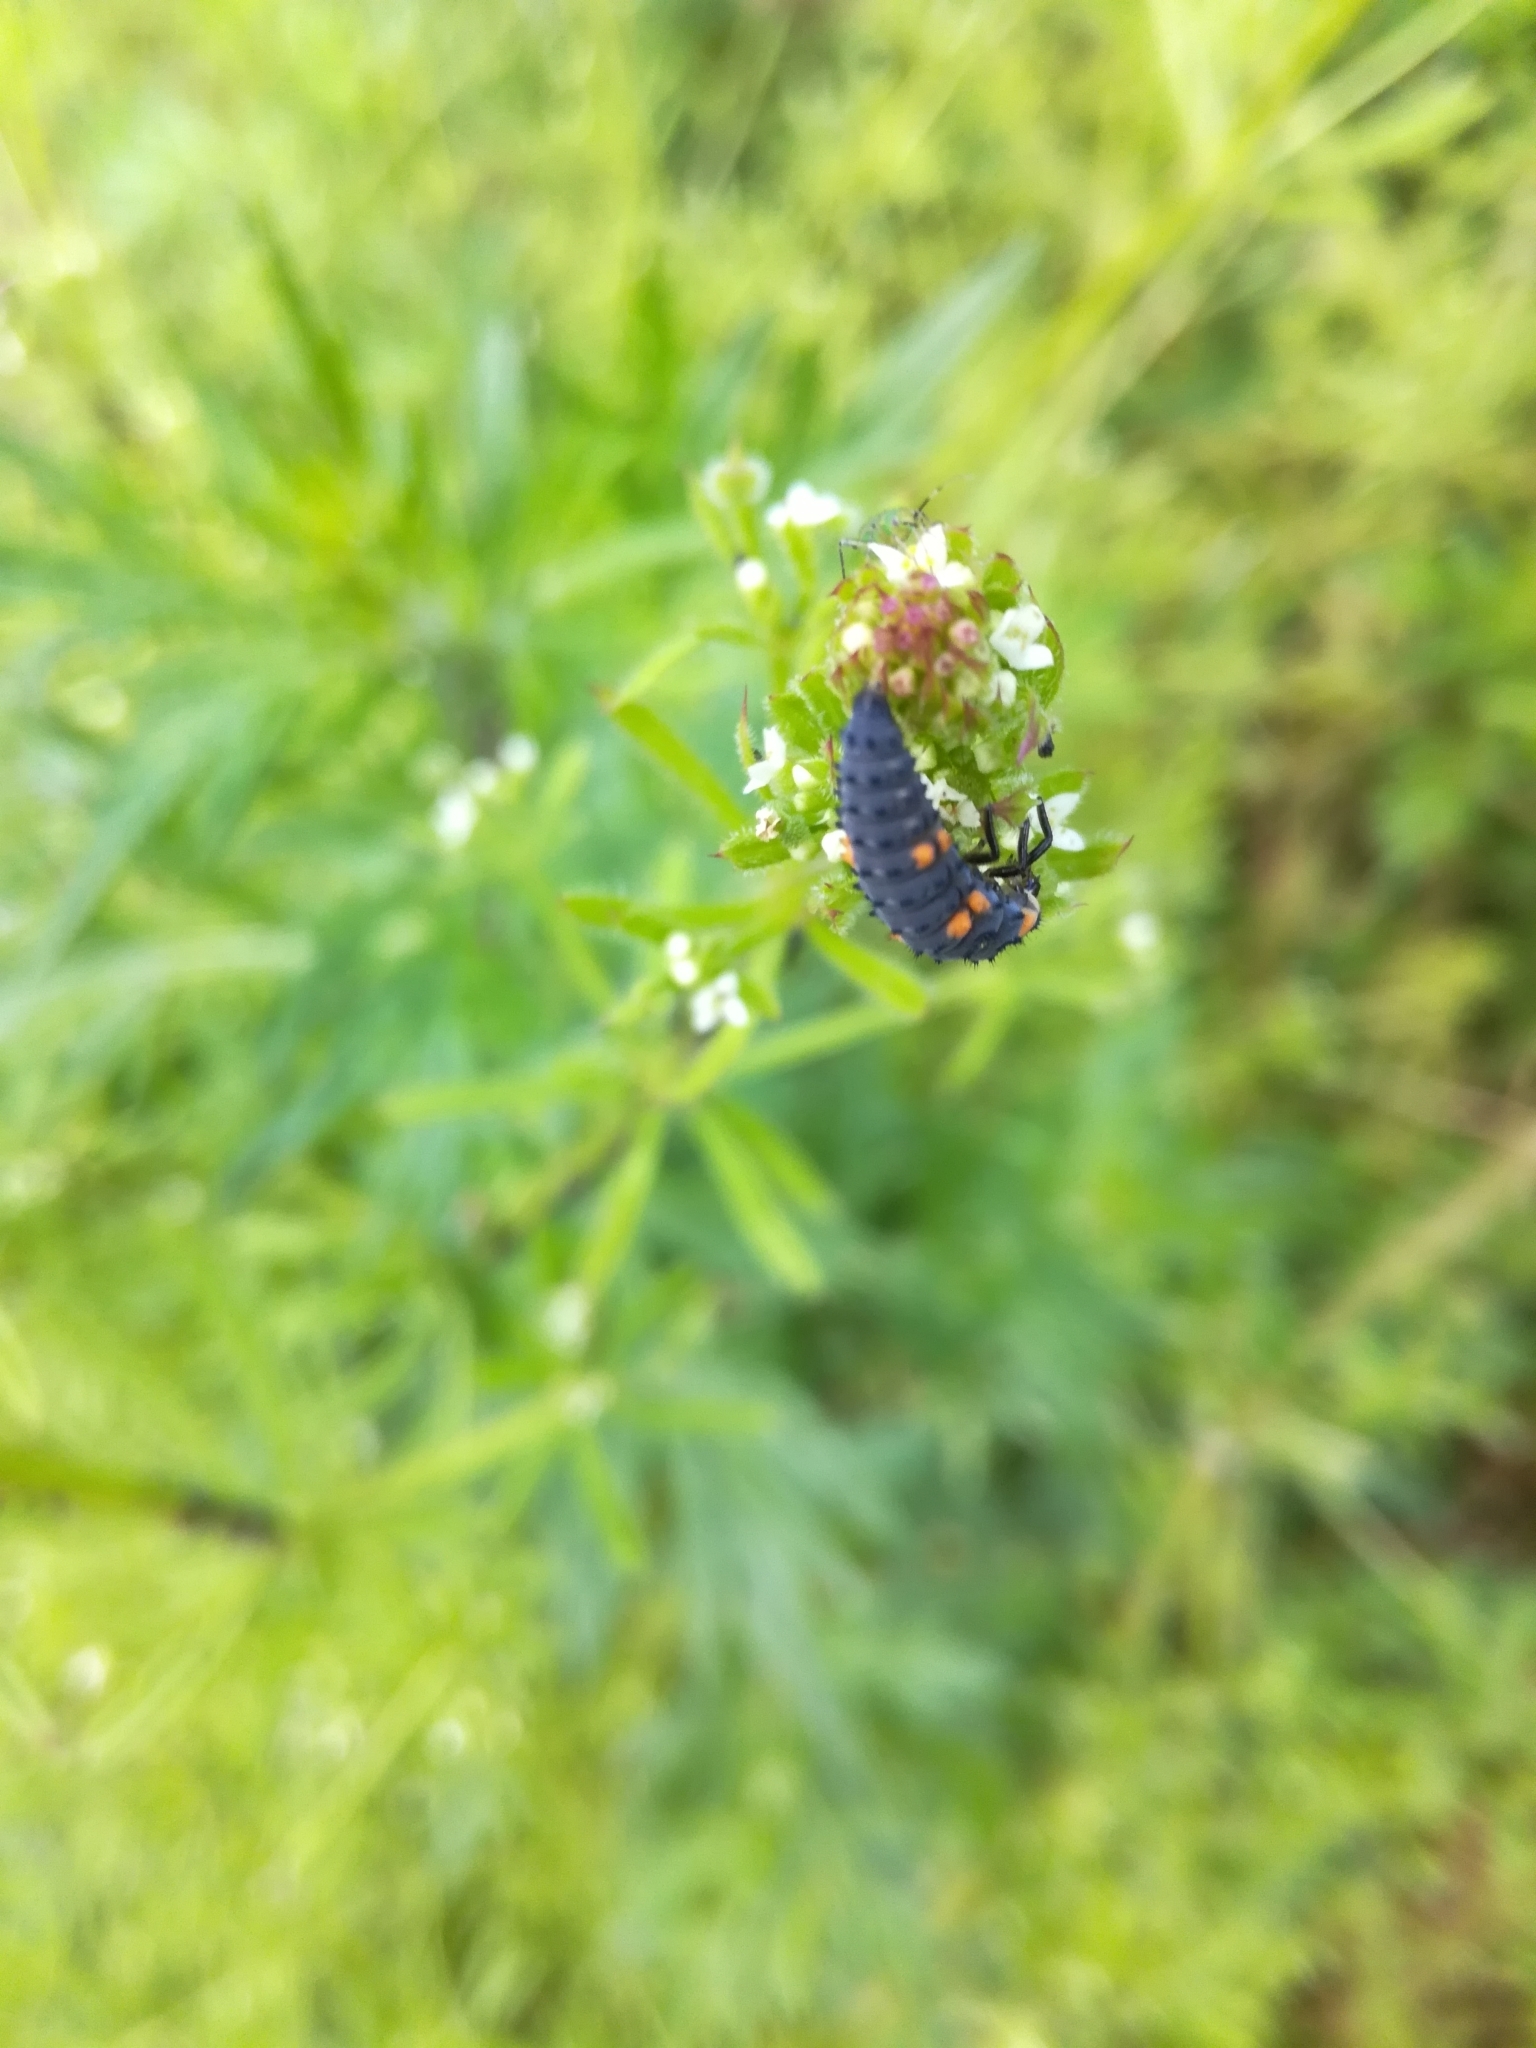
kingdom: Animalia
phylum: Arthropoda
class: Insecta
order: Coleoptera
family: Coccinellidae
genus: Coccinella
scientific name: Coccinella septempunctata
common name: Sevenspotted lady beetle
